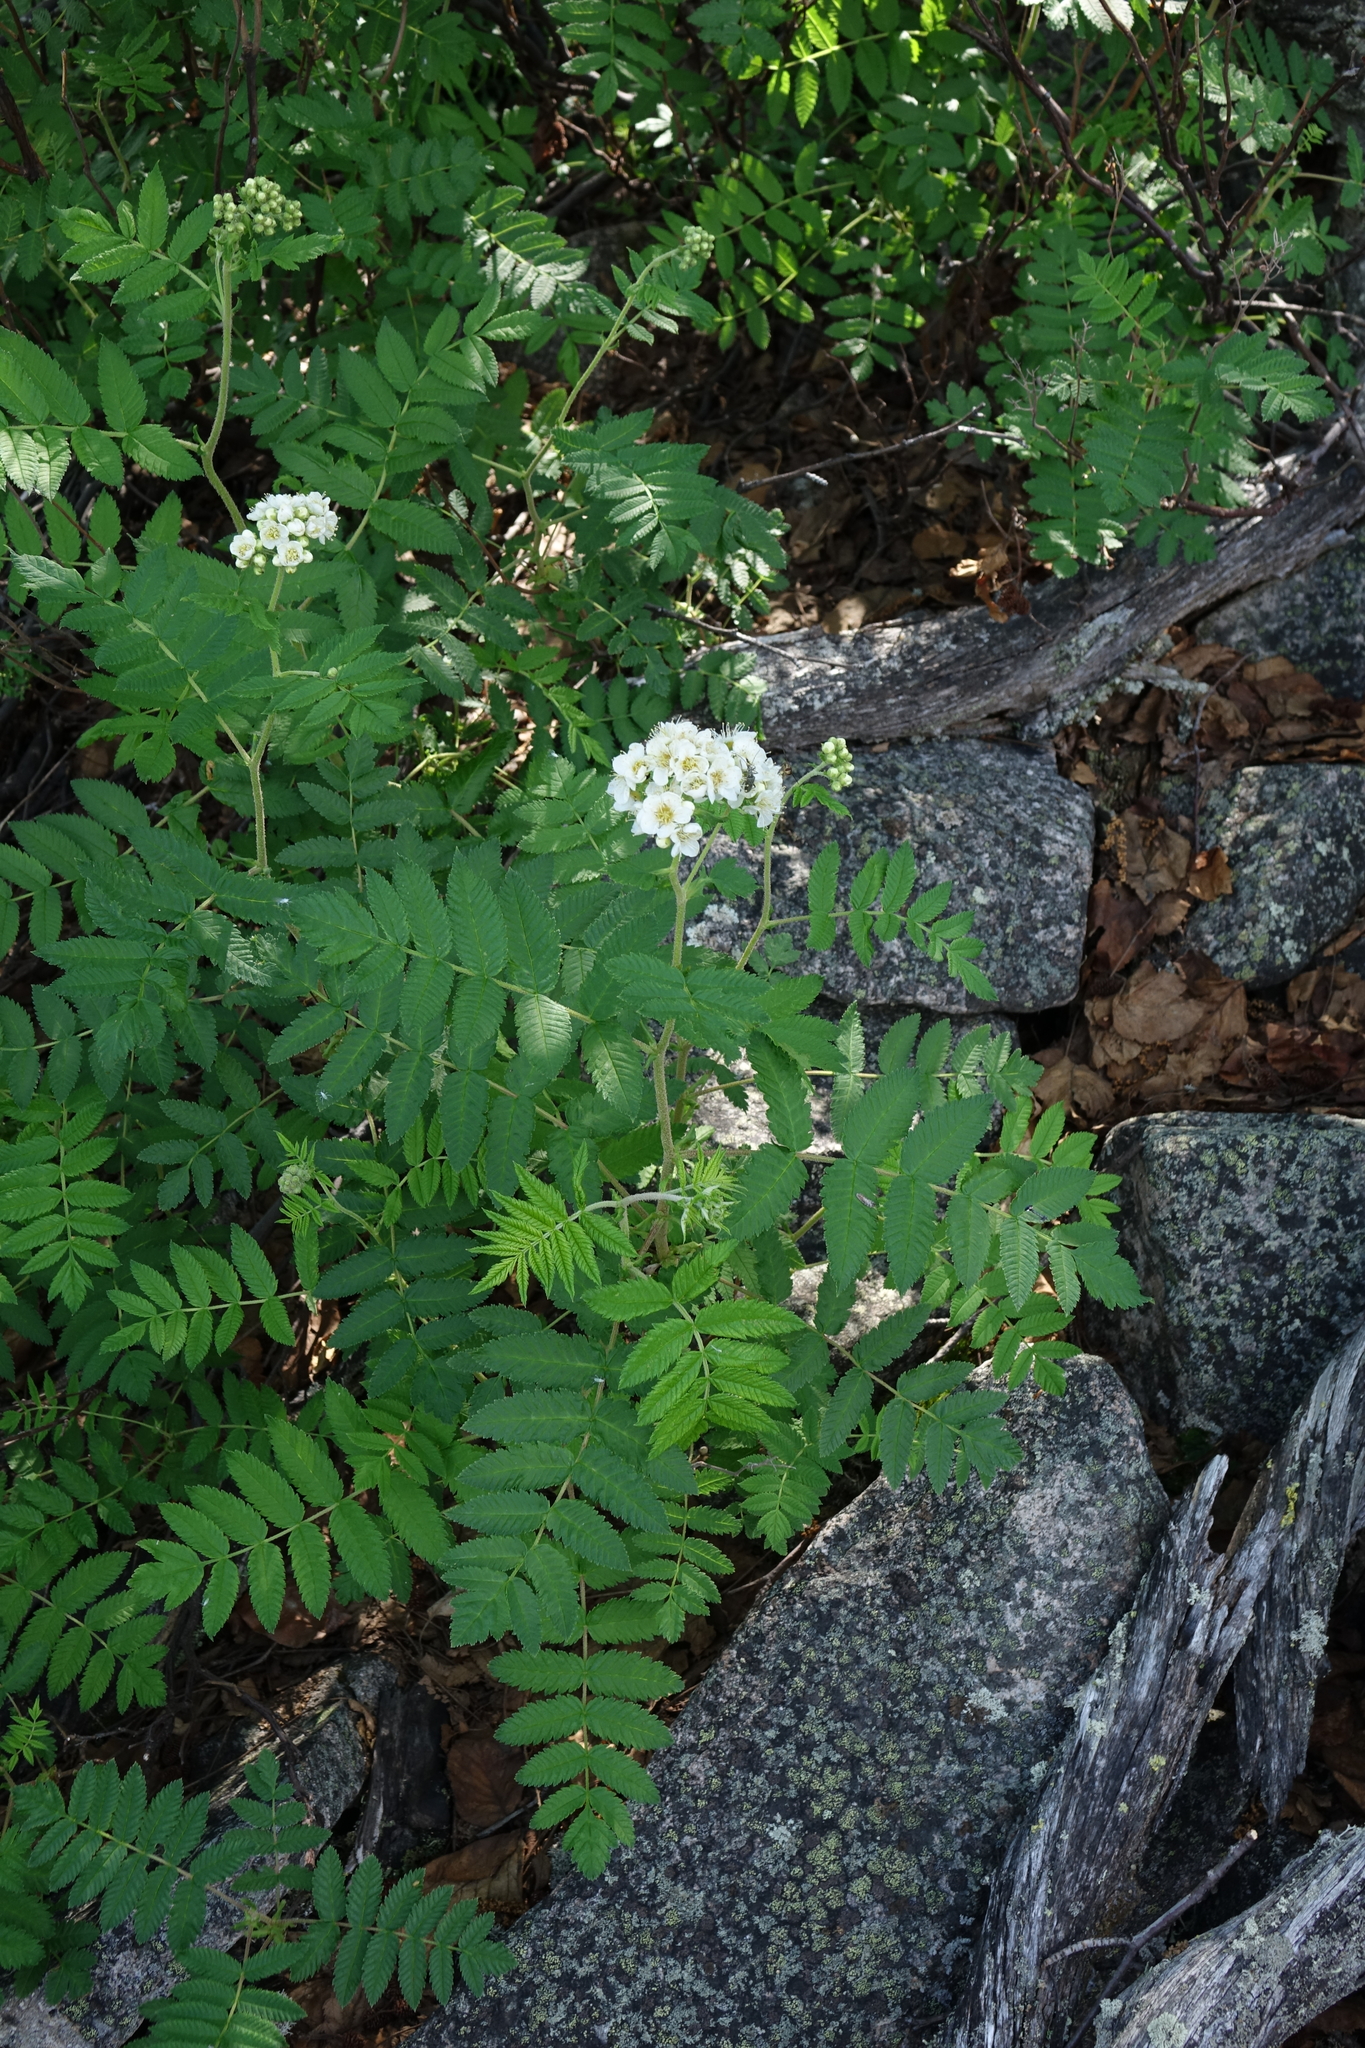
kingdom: Plantae
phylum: Tracheophyta
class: Magnoliopsida
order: Rosales
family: Rosaceae
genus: Sorbaria
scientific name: Sorbaria pallasii
